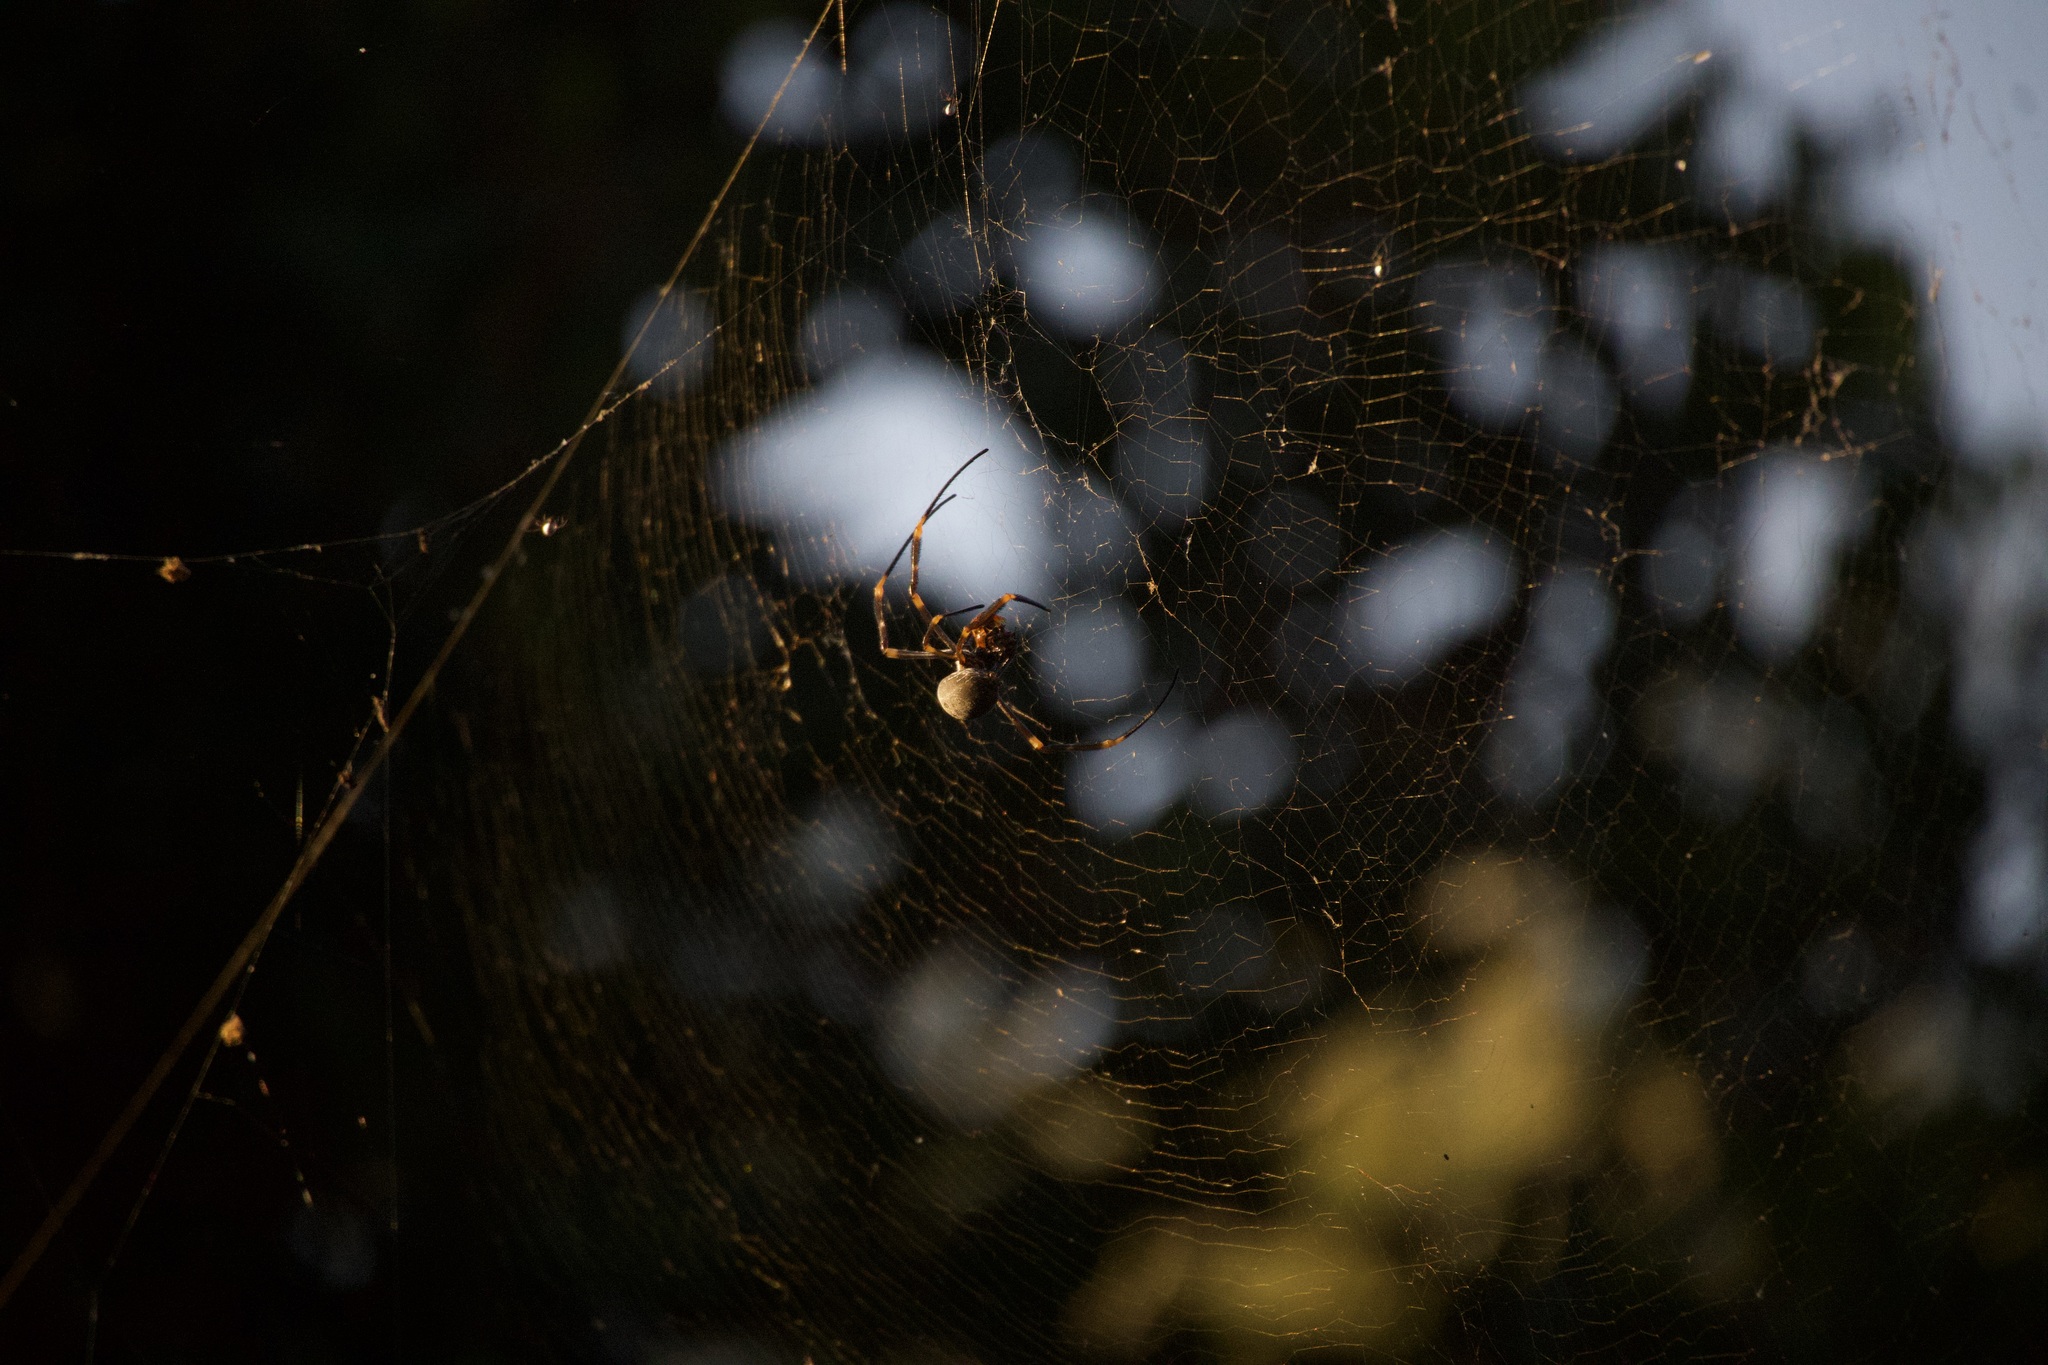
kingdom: Animalia
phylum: Arthropoda
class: Arachnida
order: Araneae
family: Araneidae
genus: Trichonephila
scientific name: Trichonephila plumipes
